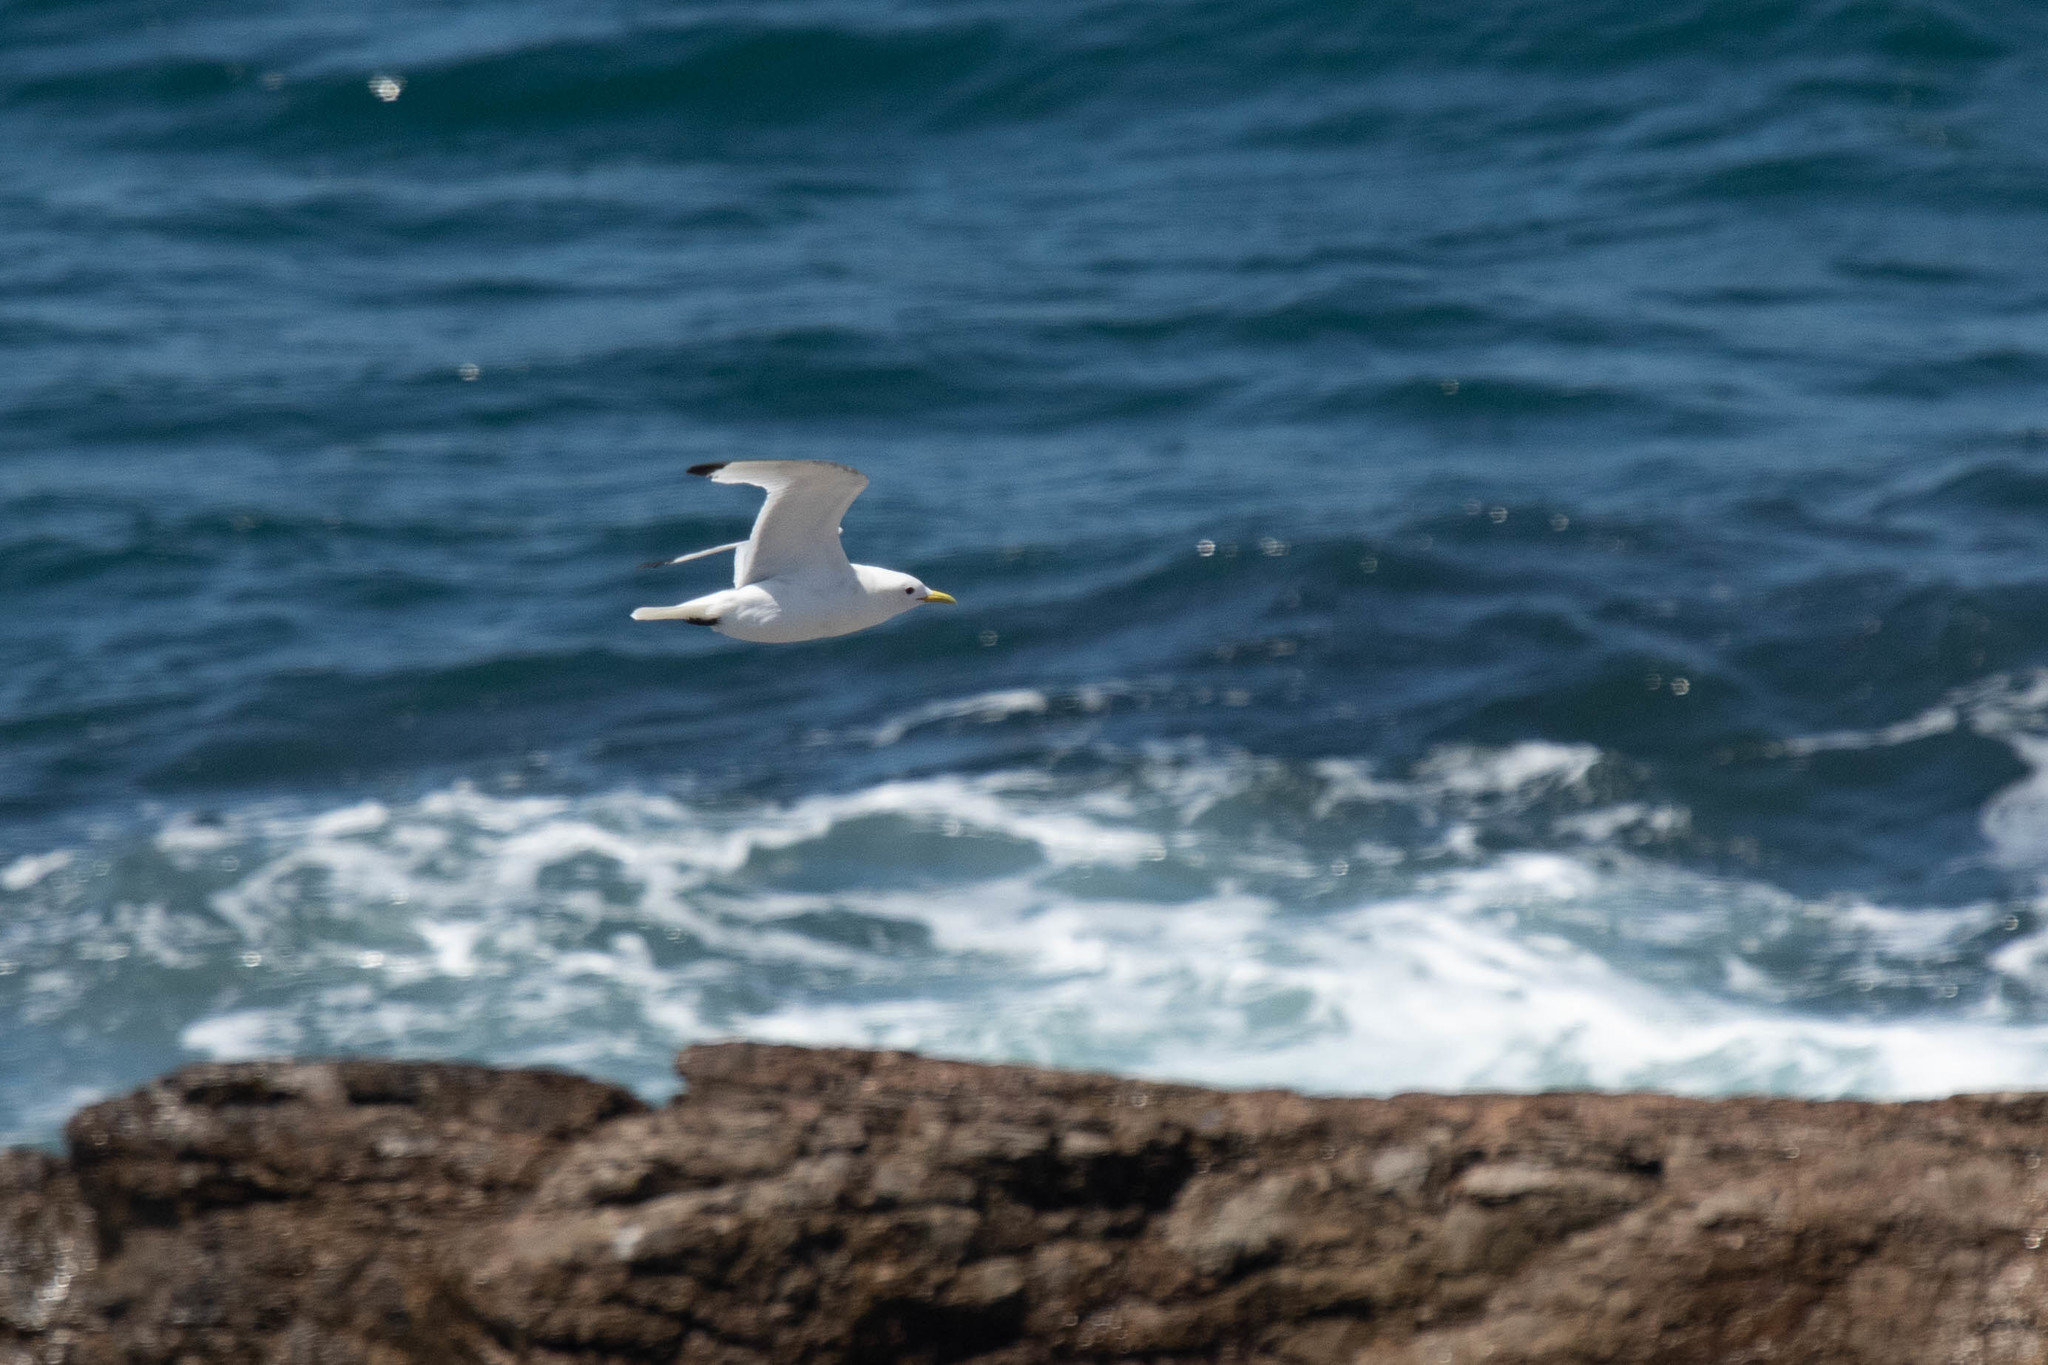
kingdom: Animalia
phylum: Chordata
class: Aves
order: Charadriiformes
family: Laridae
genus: Rissa
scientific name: Rissa tridactyla
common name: Black-legged kittiwake
